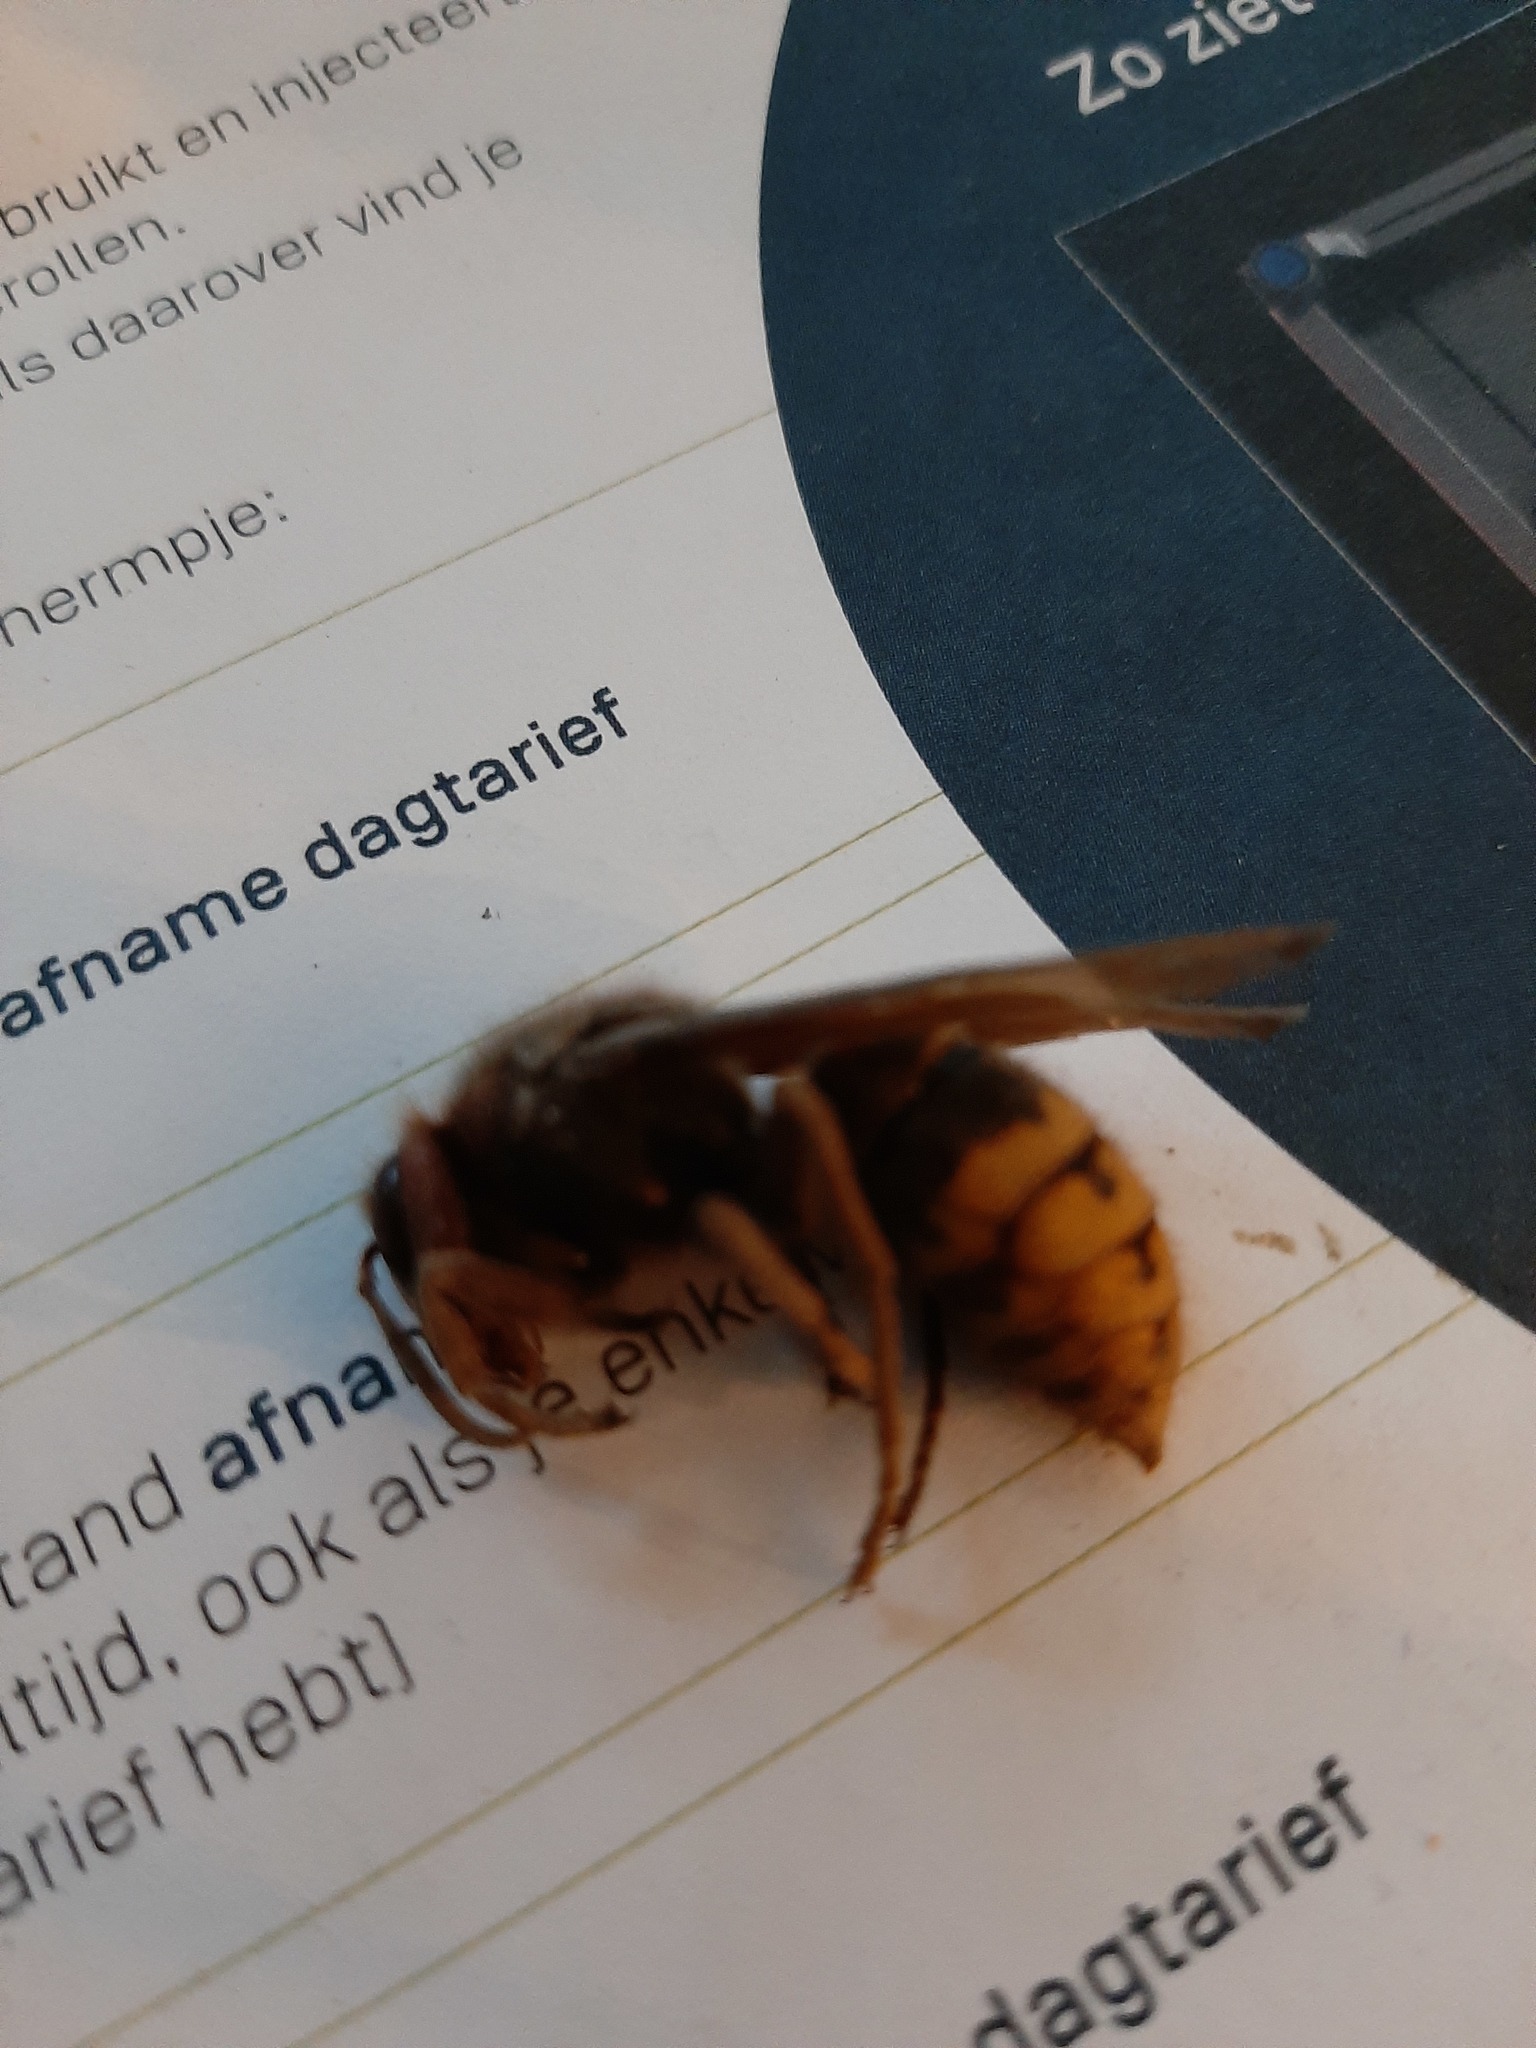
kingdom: Animalia
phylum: Arthropoda
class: Insecta
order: Hymenoptera
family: Vespidae
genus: Vespa
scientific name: Vespa crabro
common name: Hornet
